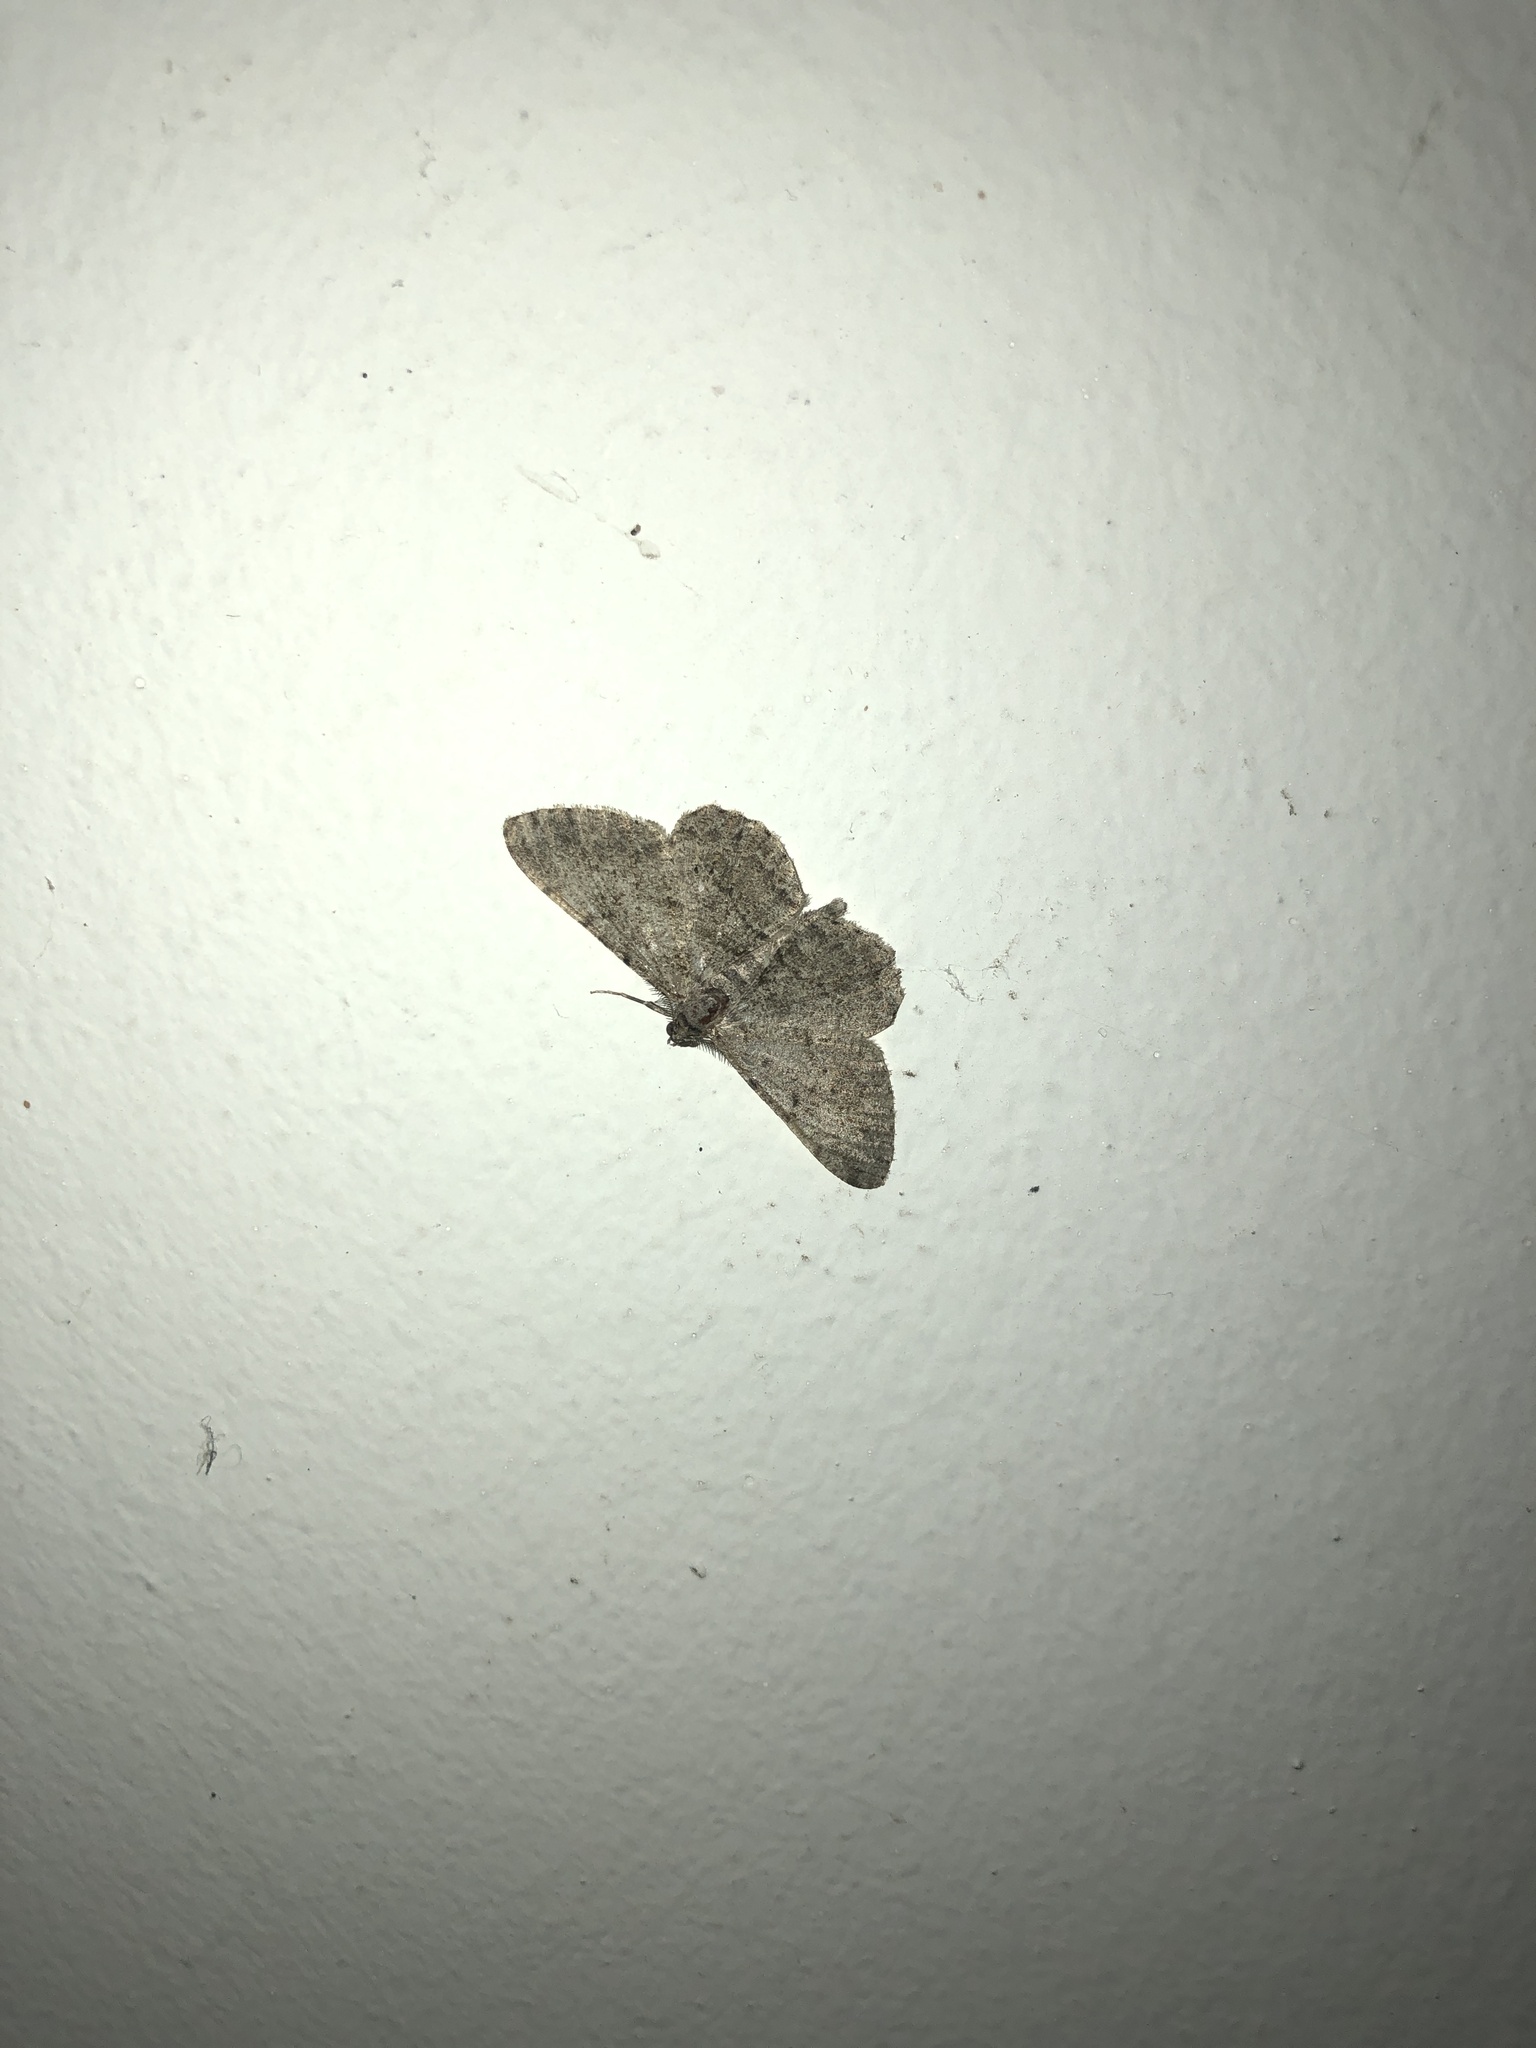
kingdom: Animalia
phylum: Arthropoda
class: Insecta
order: Lepidoptera
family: Geometridae
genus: Peribatodes
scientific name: Peribatodes rhomboidaria
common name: Willow beauty
